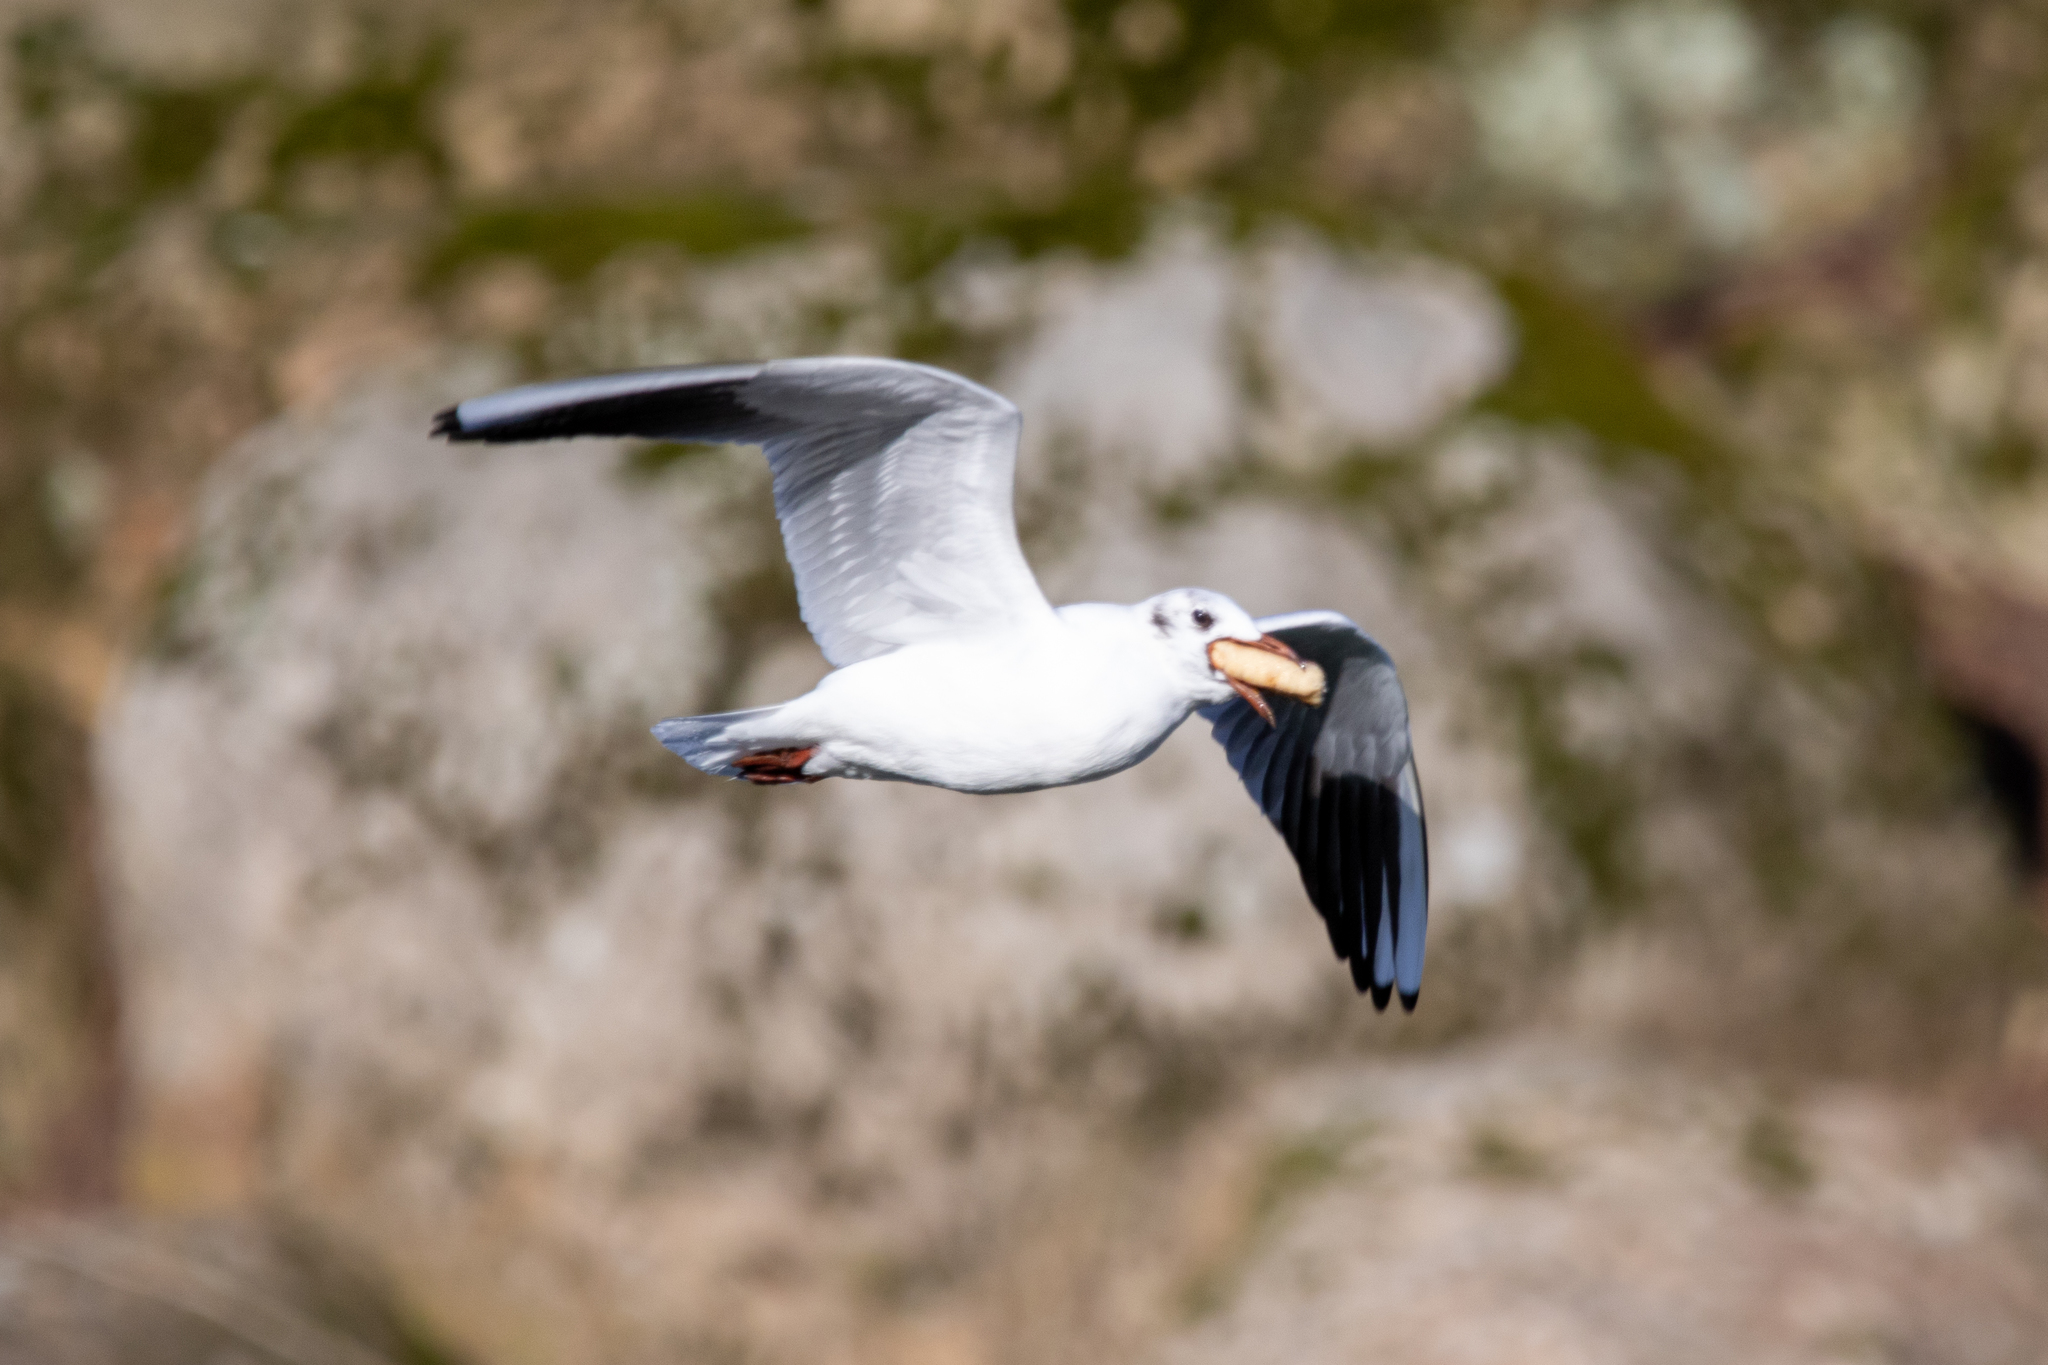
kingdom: Animalia
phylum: Chordata
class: Aves
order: Charadriiformes
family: Laridae
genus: Chroicocephalus
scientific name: Chroicocephalus ridibundus
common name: Black-headed gull
